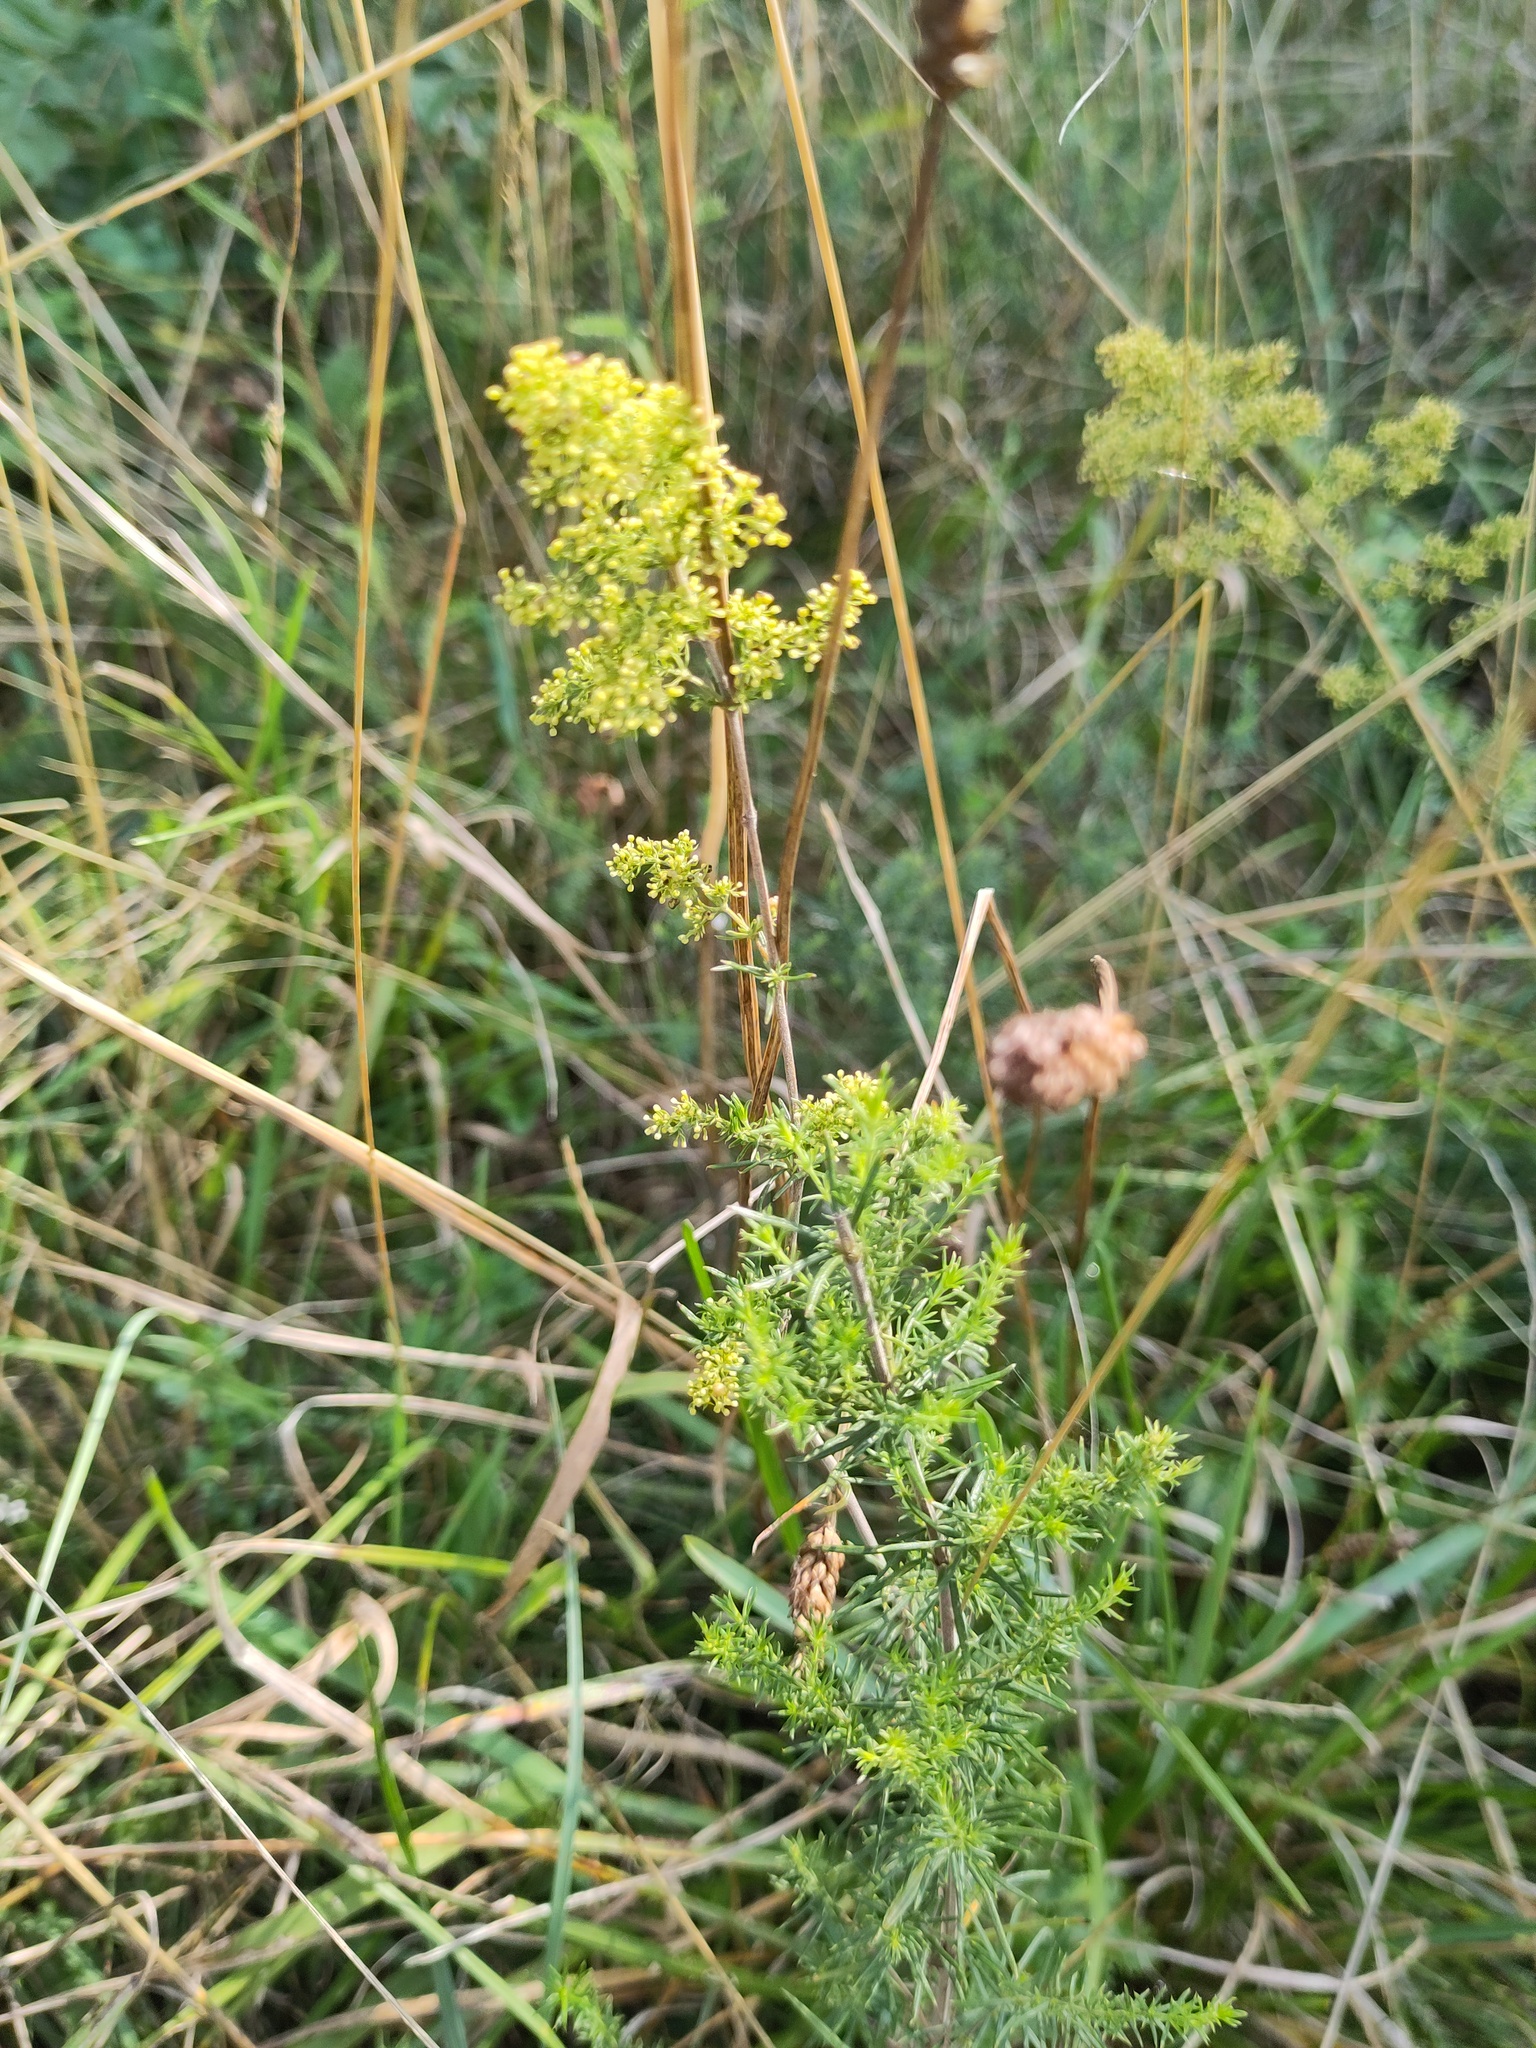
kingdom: Plantae
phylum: Tracheophyta
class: Magnoliopsida
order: Gentianales
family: Rubiaceae
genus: Galium
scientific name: Galium verum
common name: Lady's bedstraw
